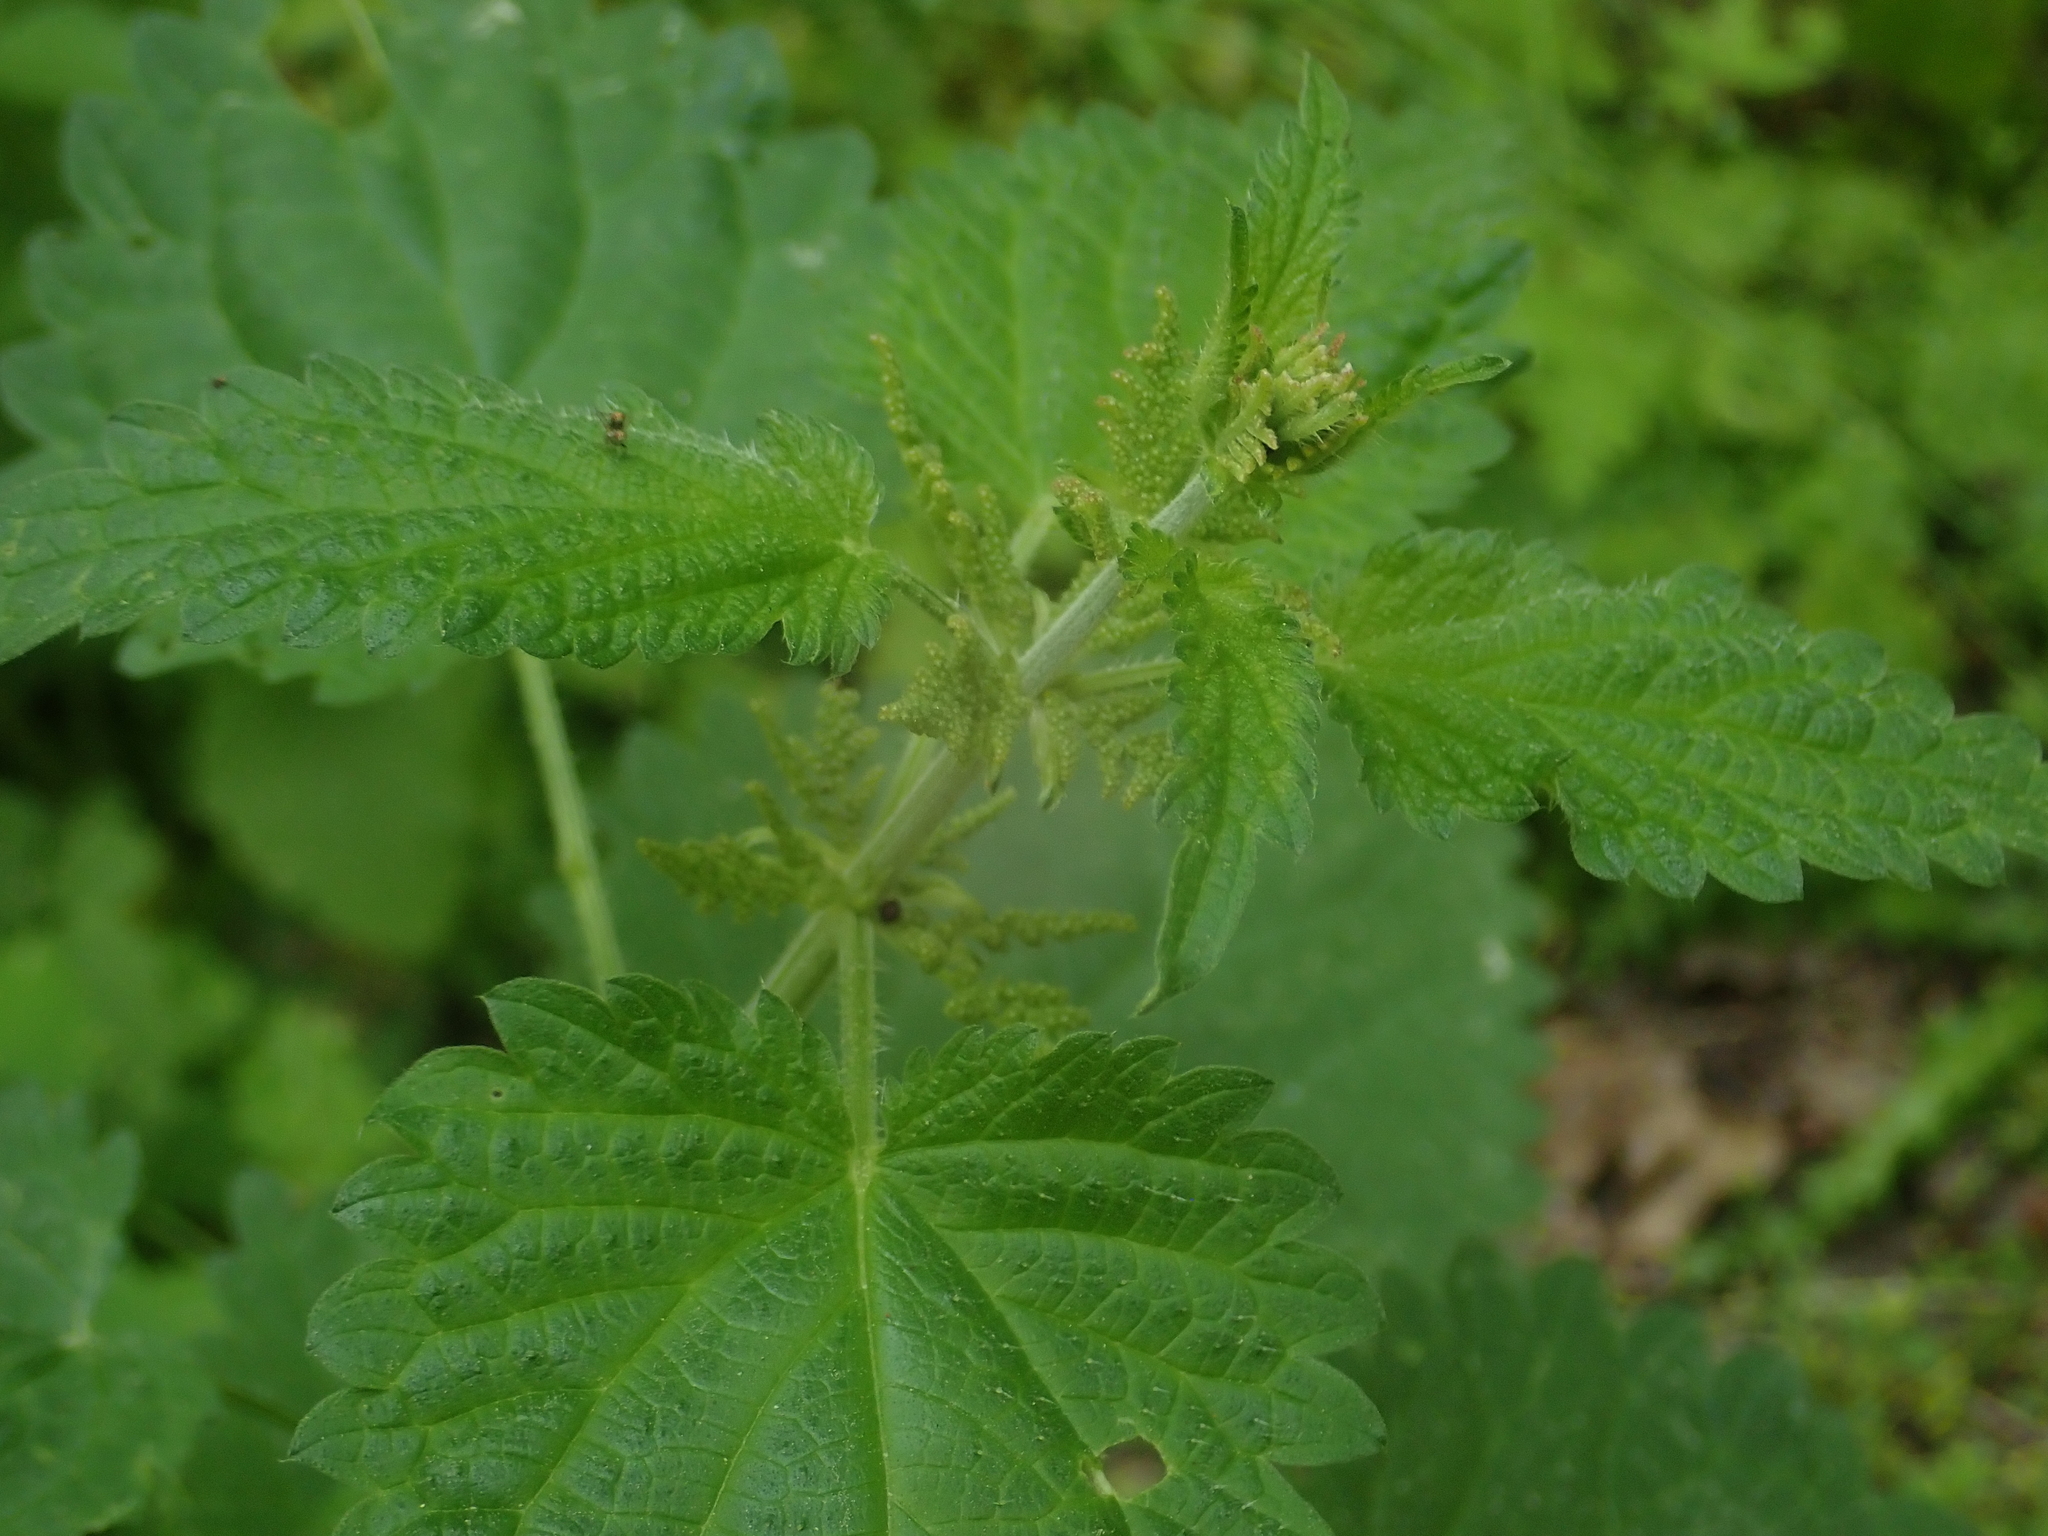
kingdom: Plantae
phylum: Tracheophyta
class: Magnoliopsida
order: Rosales
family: Urticaceae
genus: Urtica
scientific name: Urtica dioica
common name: Common nettle
